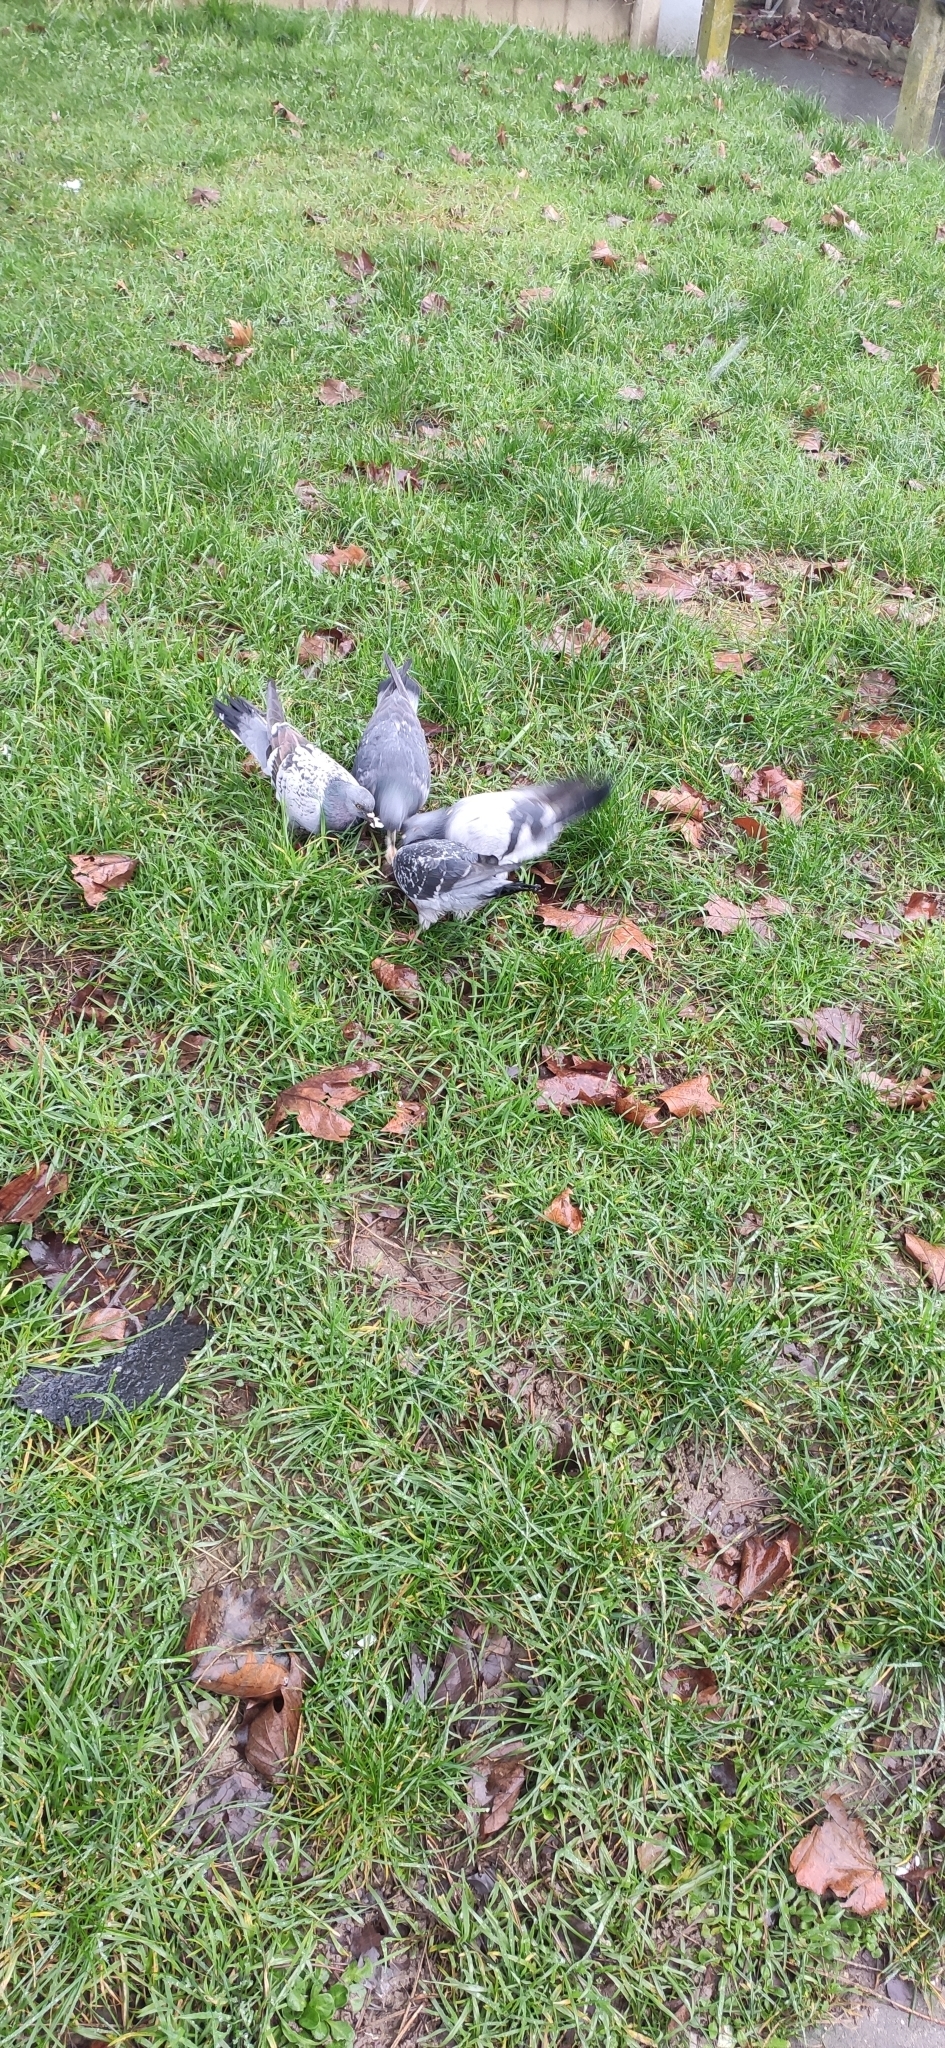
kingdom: Animalia
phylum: Chordata
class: Aves
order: Columbiformes
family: Columbidae
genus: Columba
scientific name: Columba livia
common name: Rock pigeon
